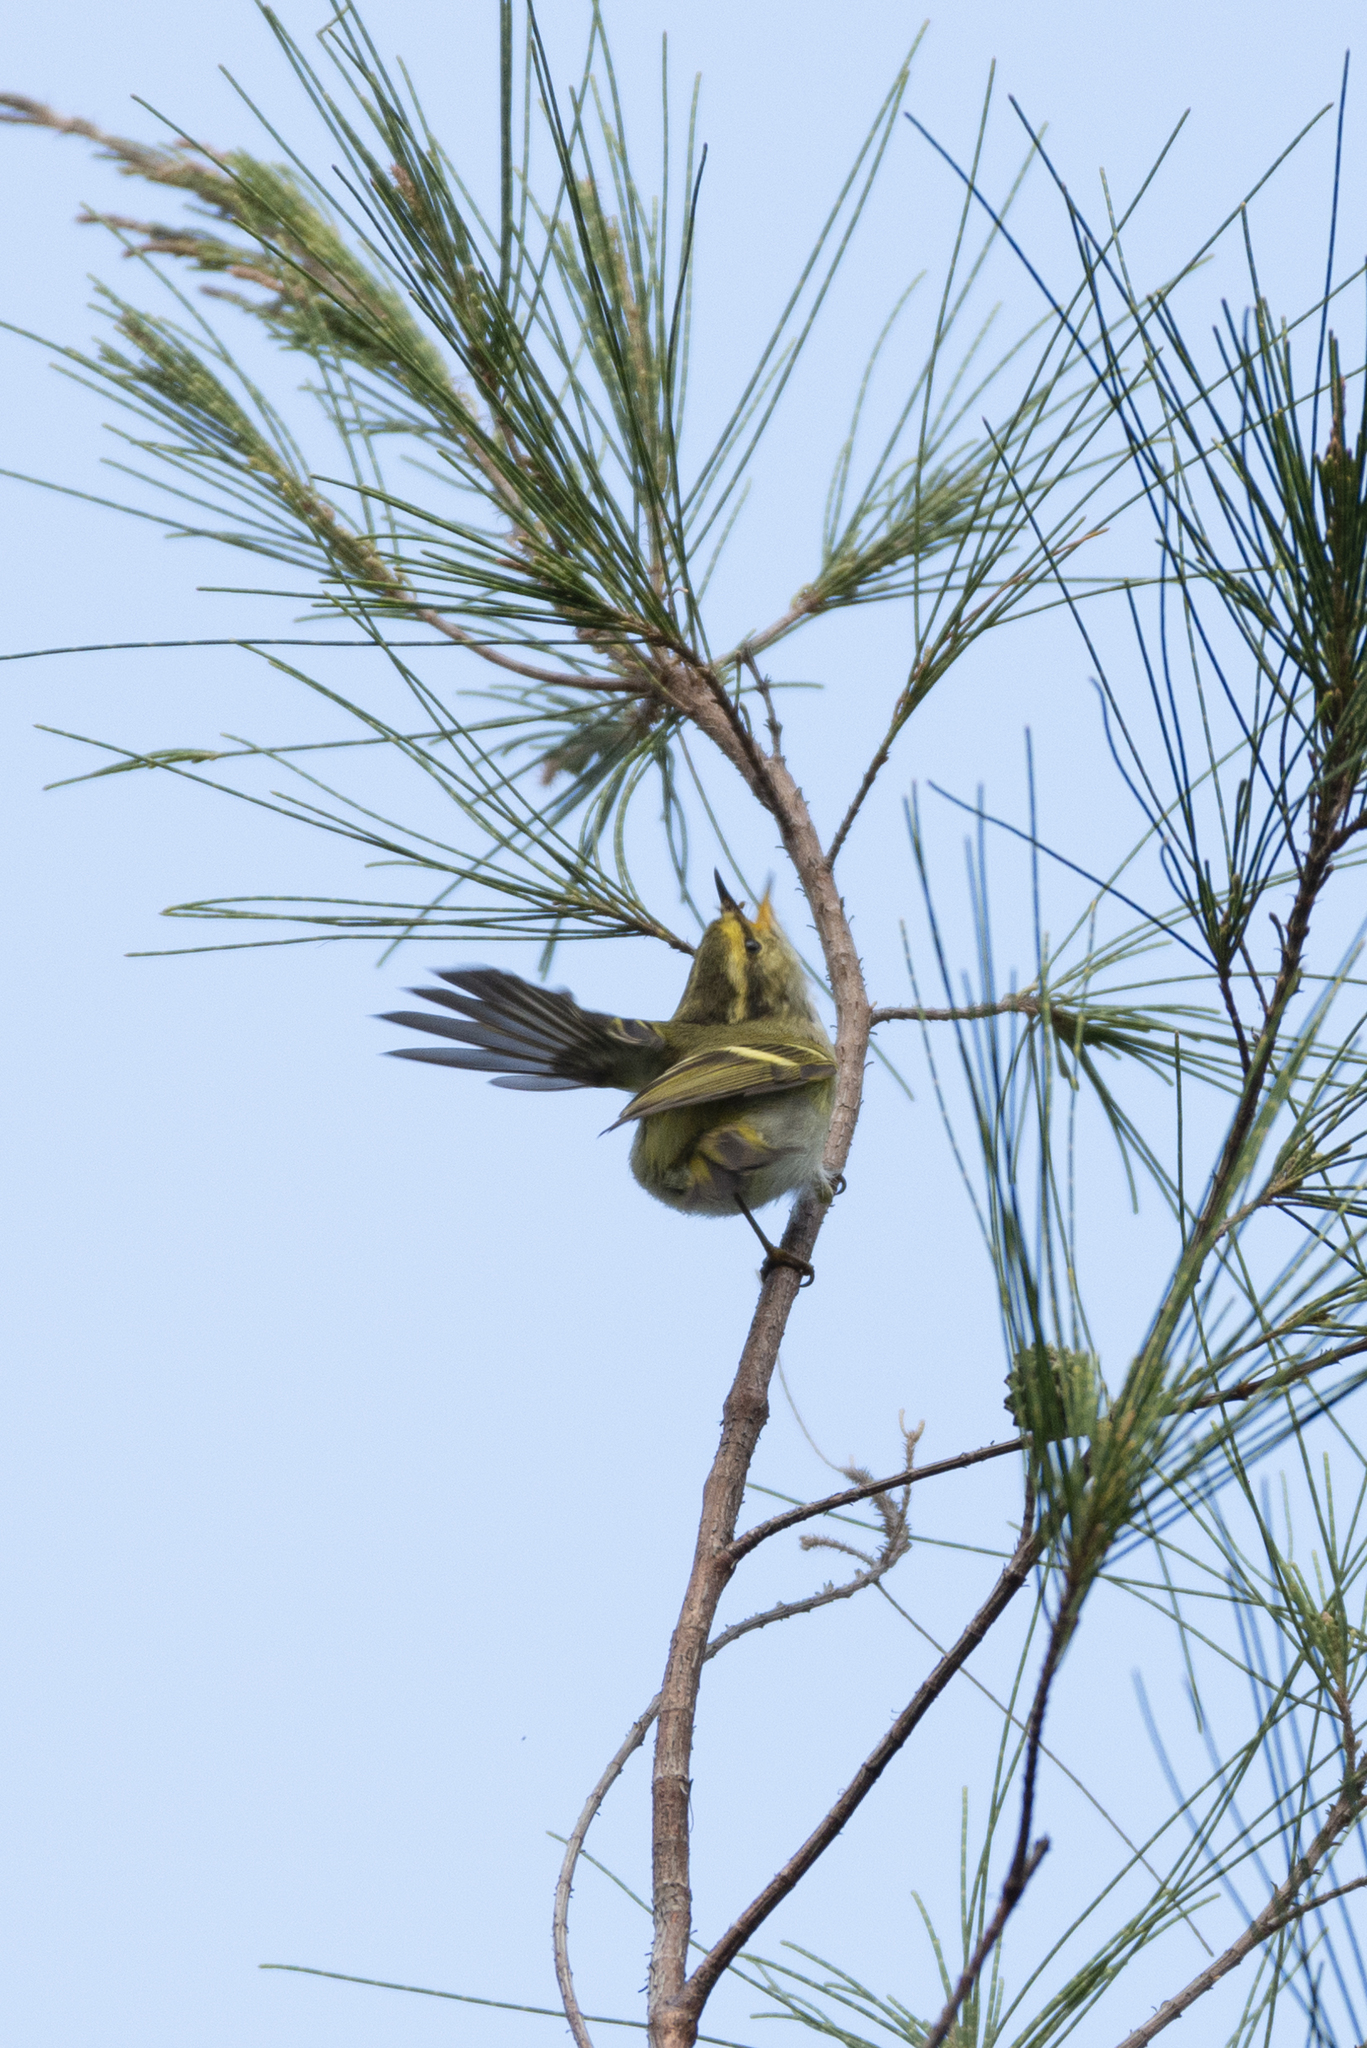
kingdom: Animalia
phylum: Chordata
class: Aves
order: Passeriformes
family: Phylloscopidae
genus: Phylloscopus
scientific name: Phylloscopus proregulus
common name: Pallas's leaf warbler
